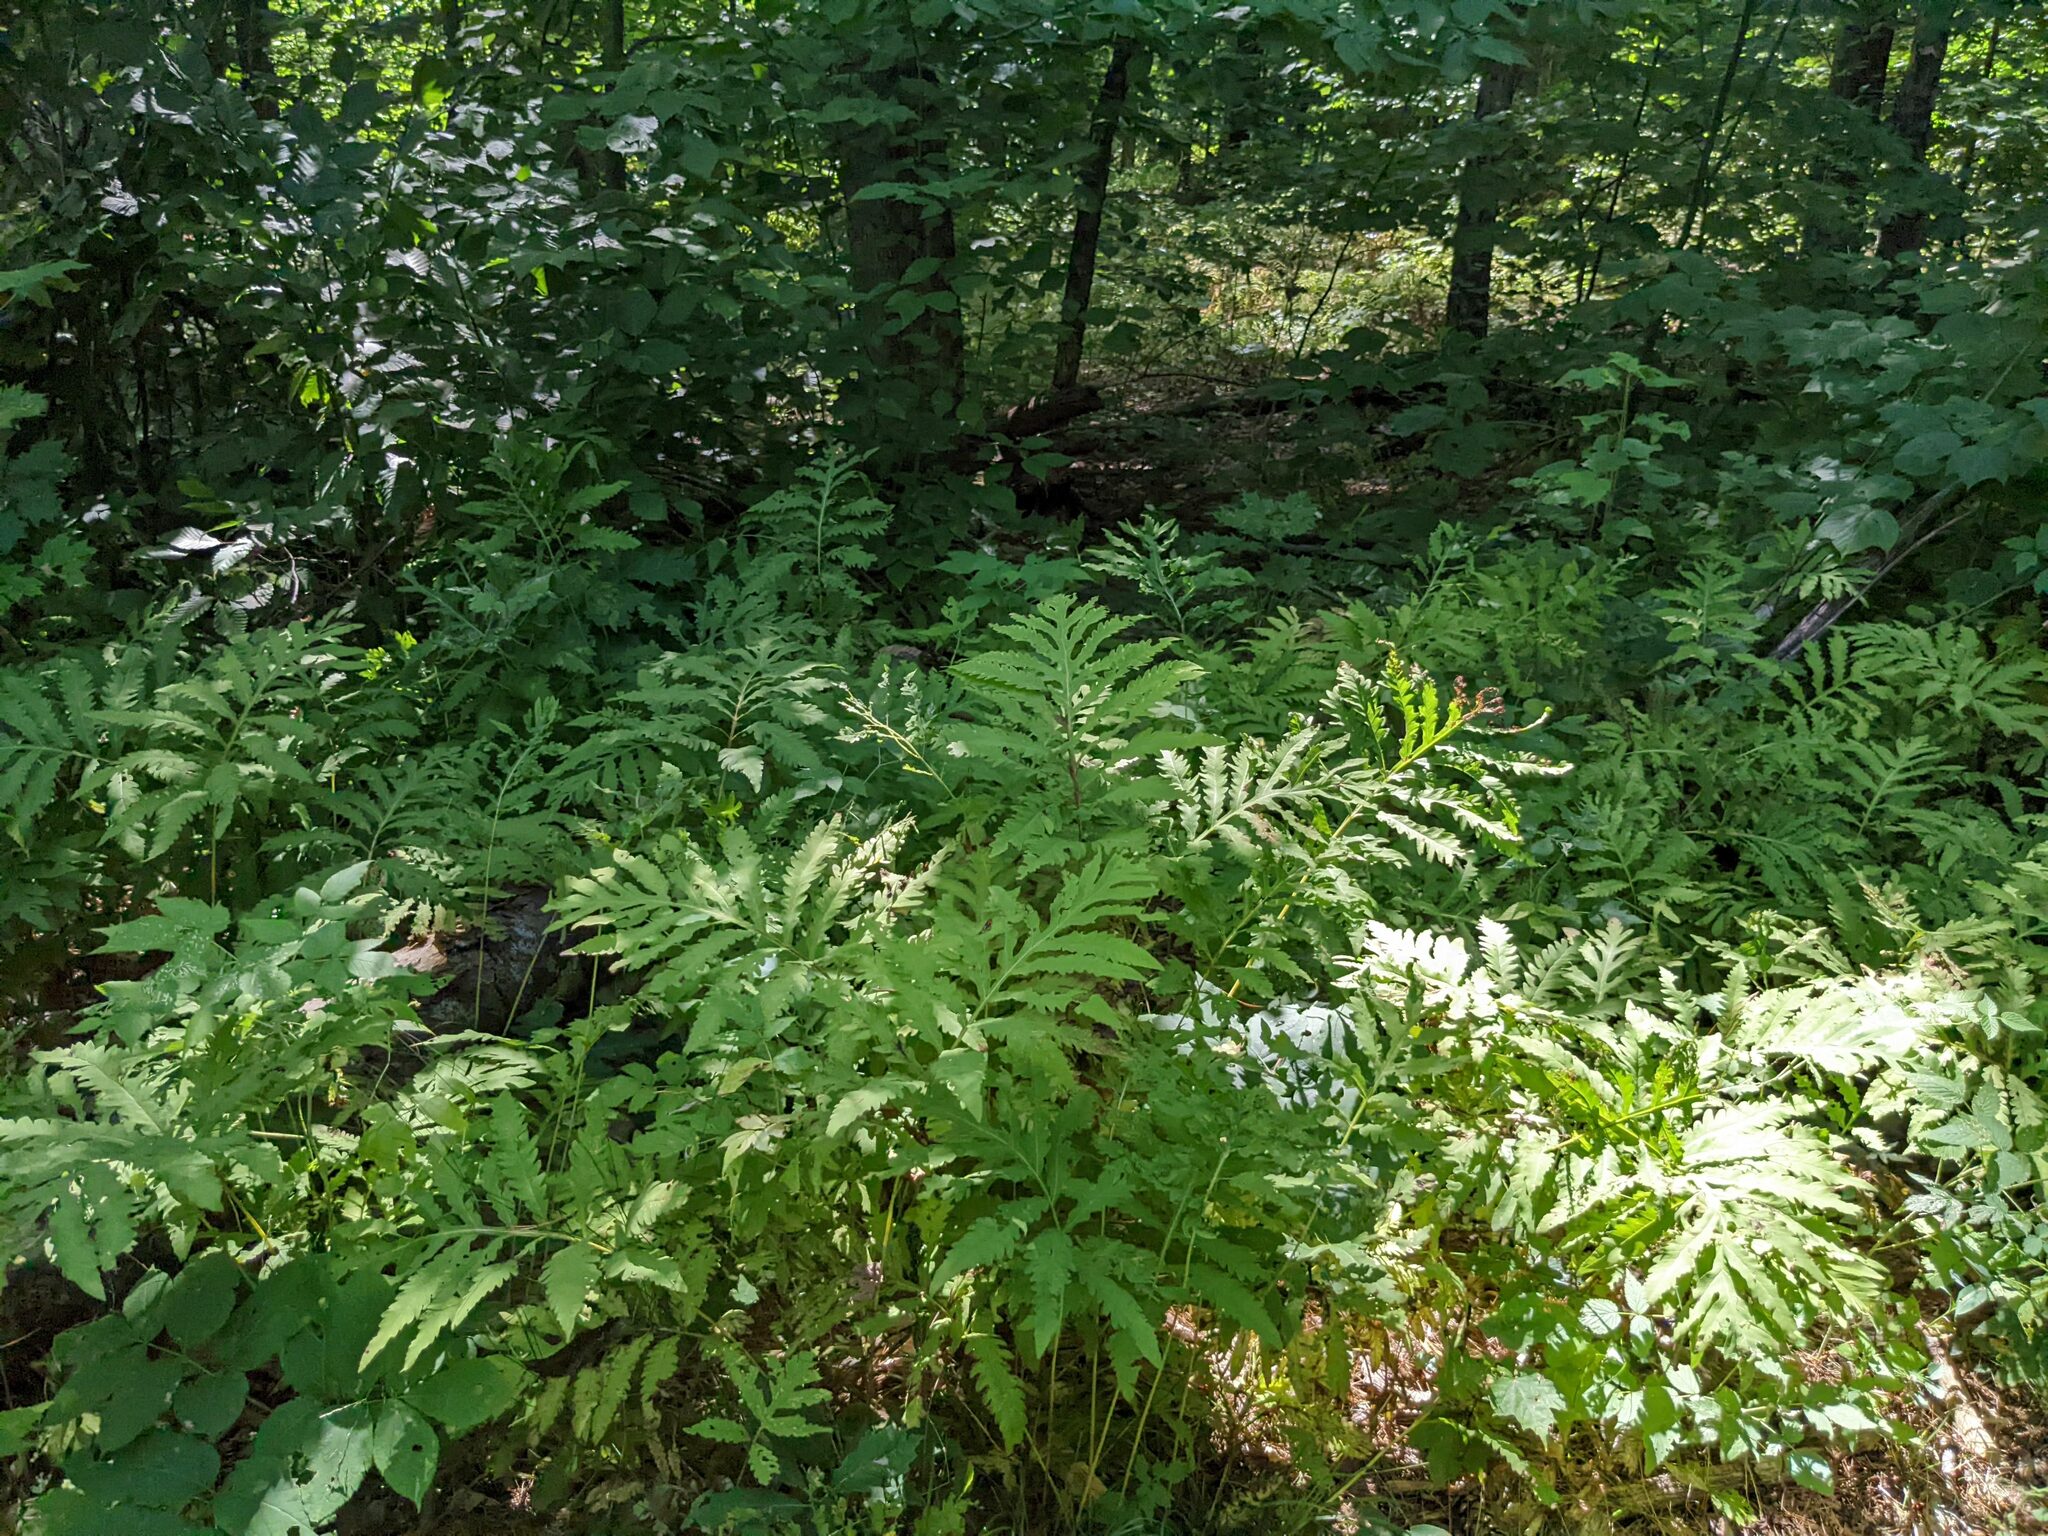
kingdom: Plantae
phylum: Tracheophyta
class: Polypodiopsida
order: Polypodiales
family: Onocleaceae
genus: Onoclea
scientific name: Onoclea sensibilis
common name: Sensitive fern
